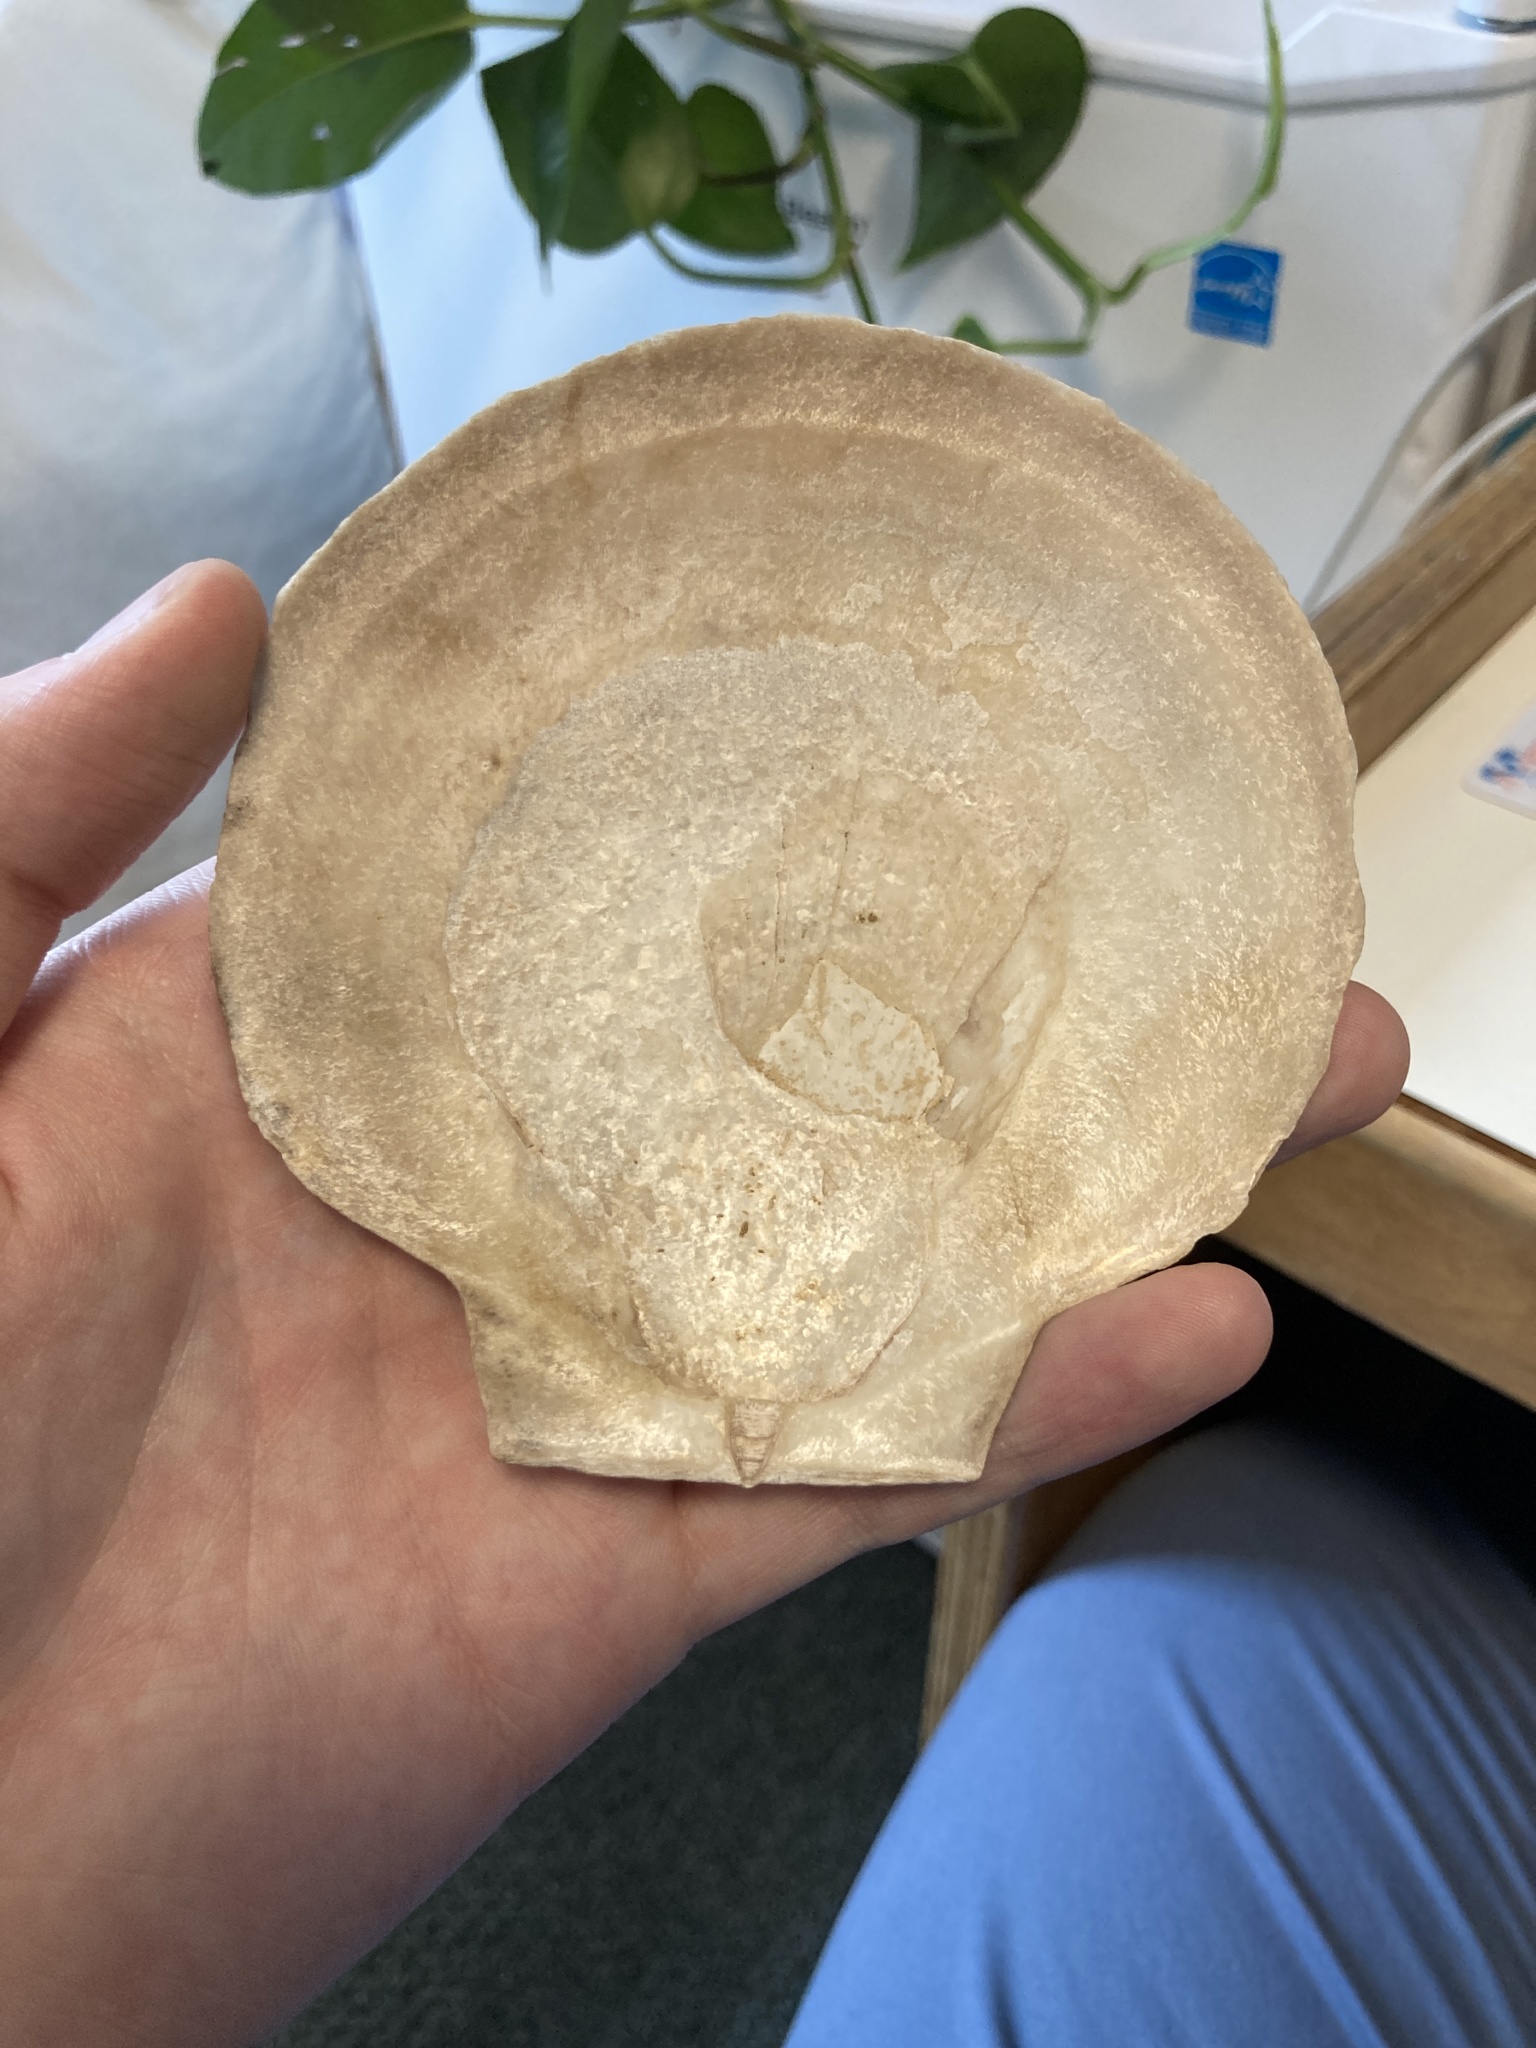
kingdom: Animalia
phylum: Mollusca
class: Bivalvia
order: Pectinida
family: Pectinidae
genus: Placopecten
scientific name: Placopecten magellanicus
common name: American sea scallop
